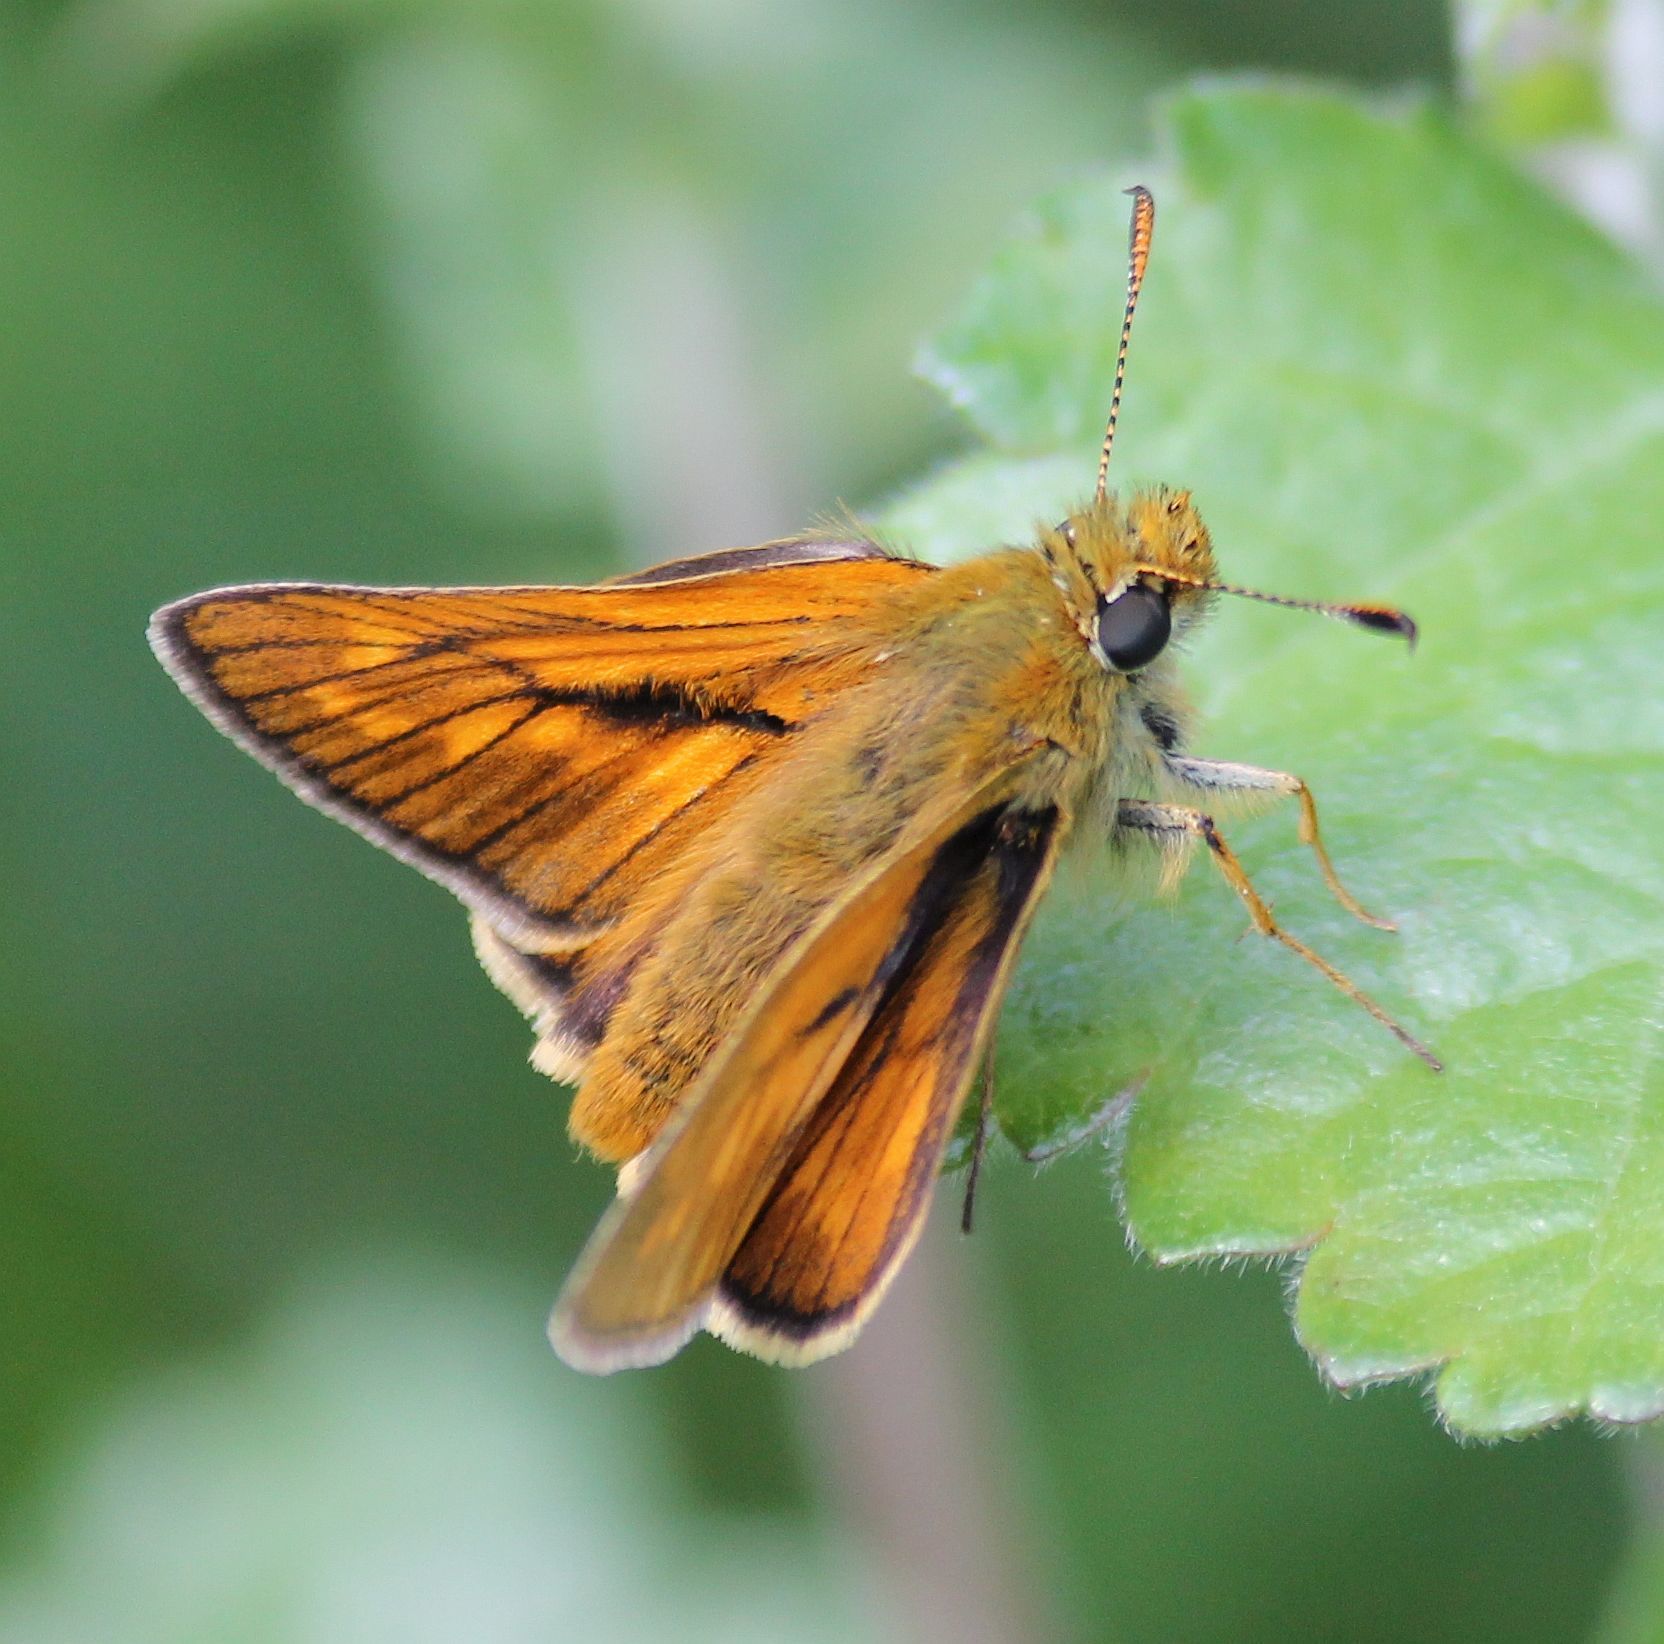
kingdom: Animalia
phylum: Arthropoda
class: Insecta
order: Lepidoptera
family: Hesperiidae
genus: Ochlodes
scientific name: Ochlodes venata
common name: Large skipper
